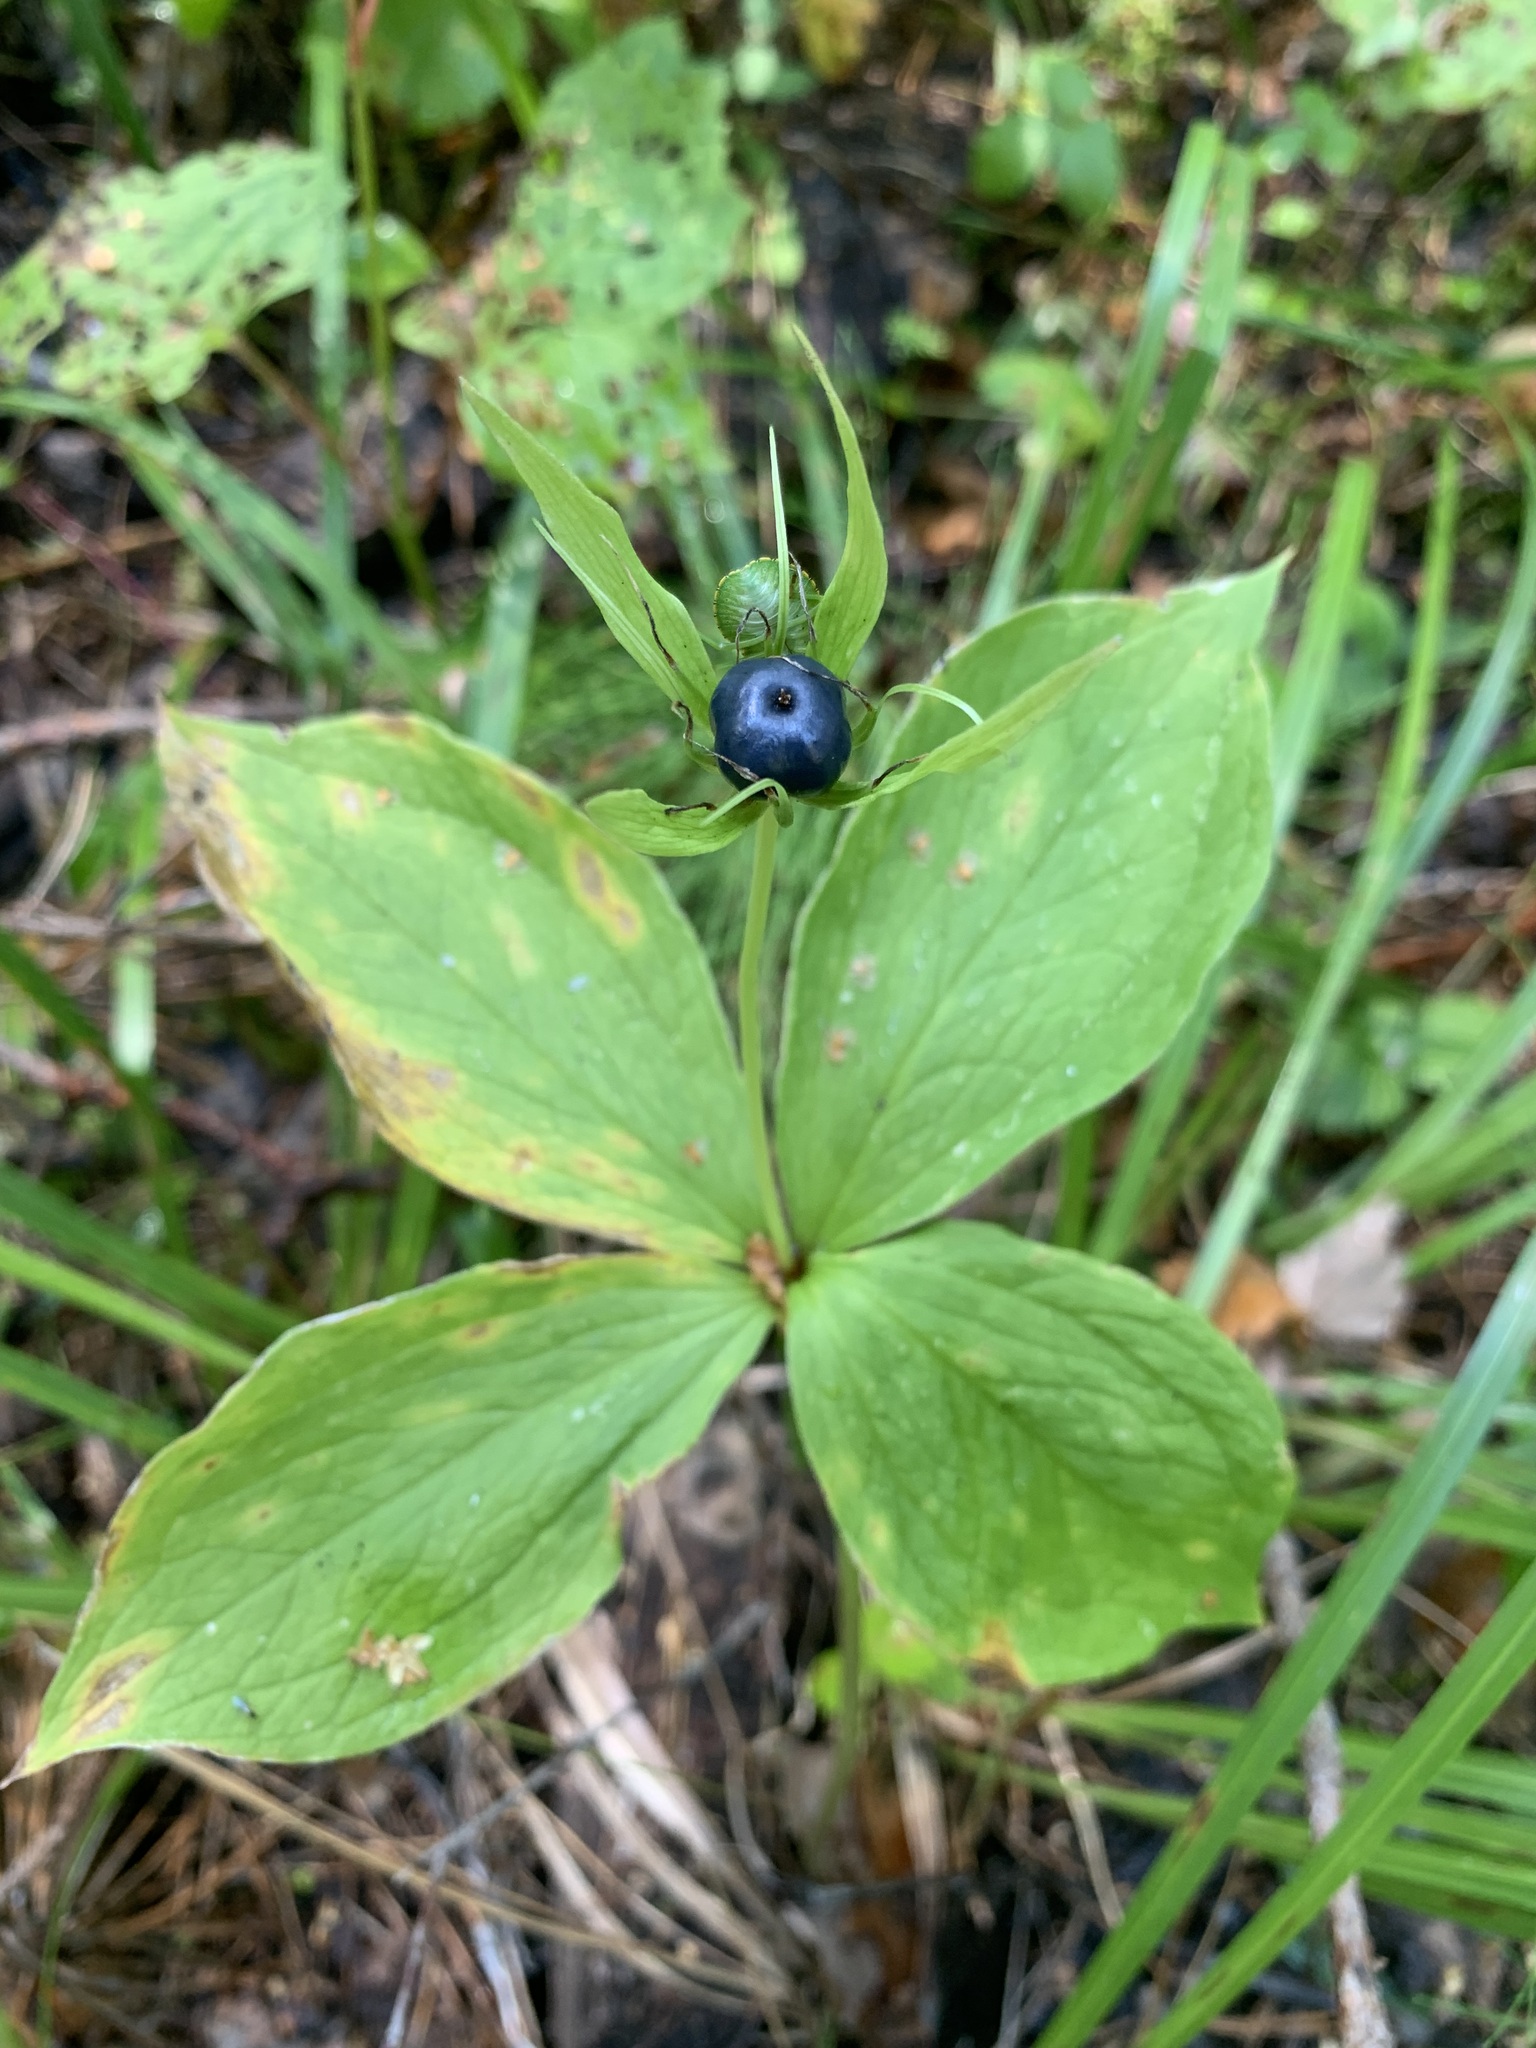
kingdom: Plantae
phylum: Tracheophyta
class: Liliopsida
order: Liliales
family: Melanthiaceae
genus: Paris
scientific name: Paris quadrifolia
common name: Herb-paris
